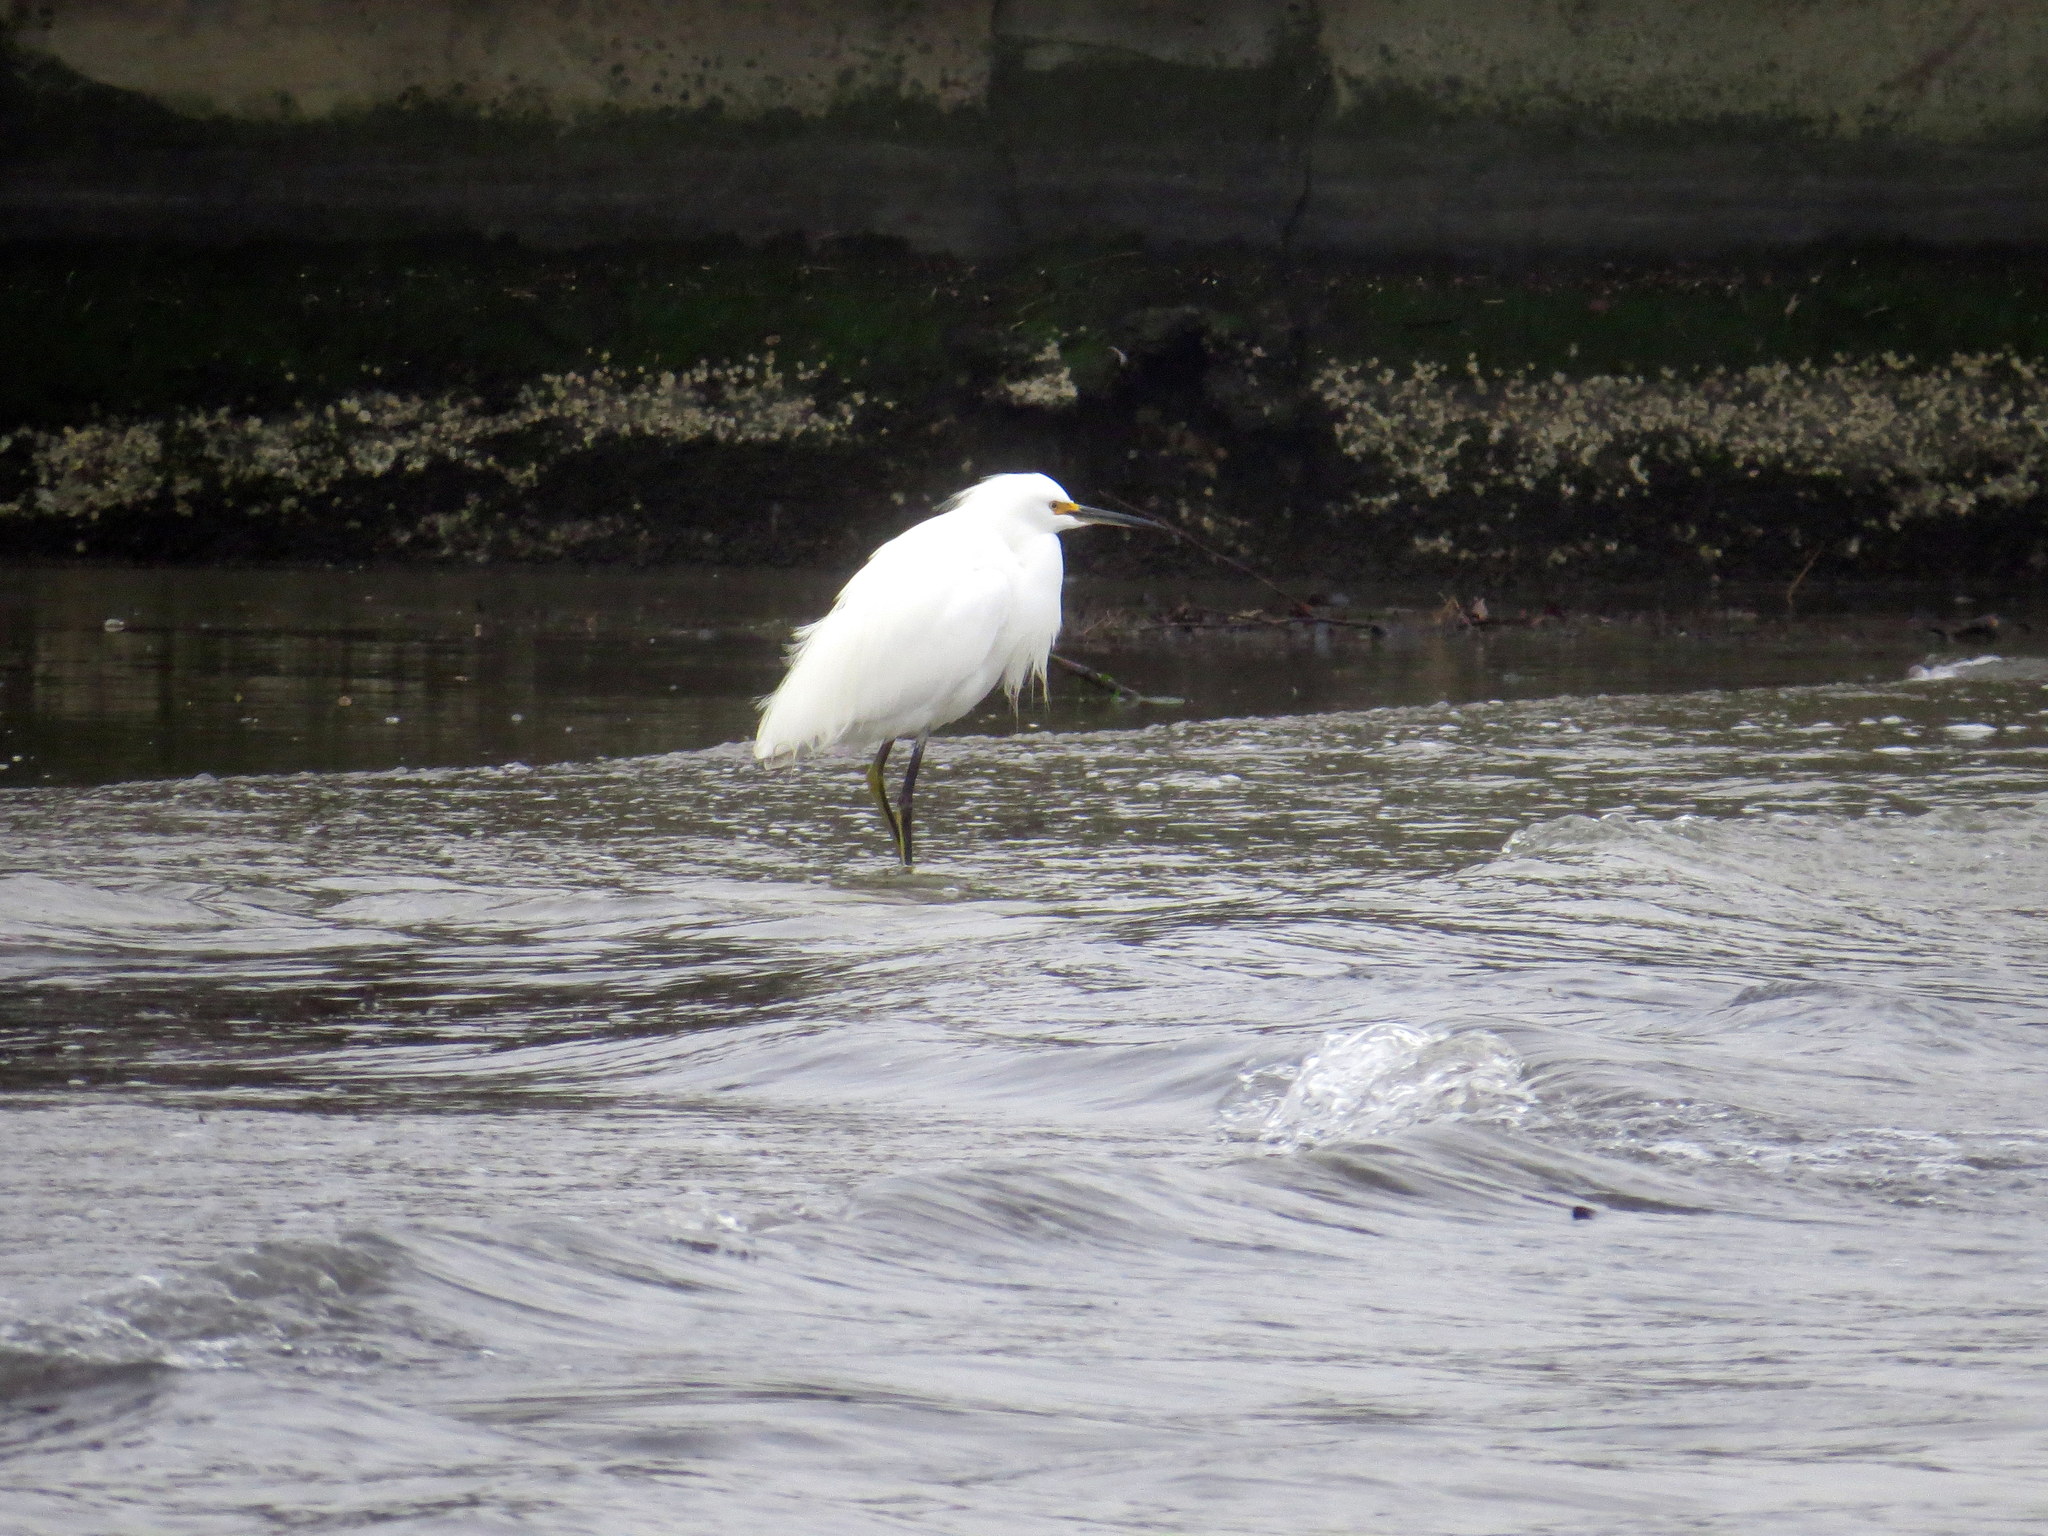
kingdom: Animalia
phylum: Chordata
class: Aves
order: Pelecaniformes
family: Ardeidae
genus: Egretta
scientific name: Egretta thula
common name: Snowy egret
